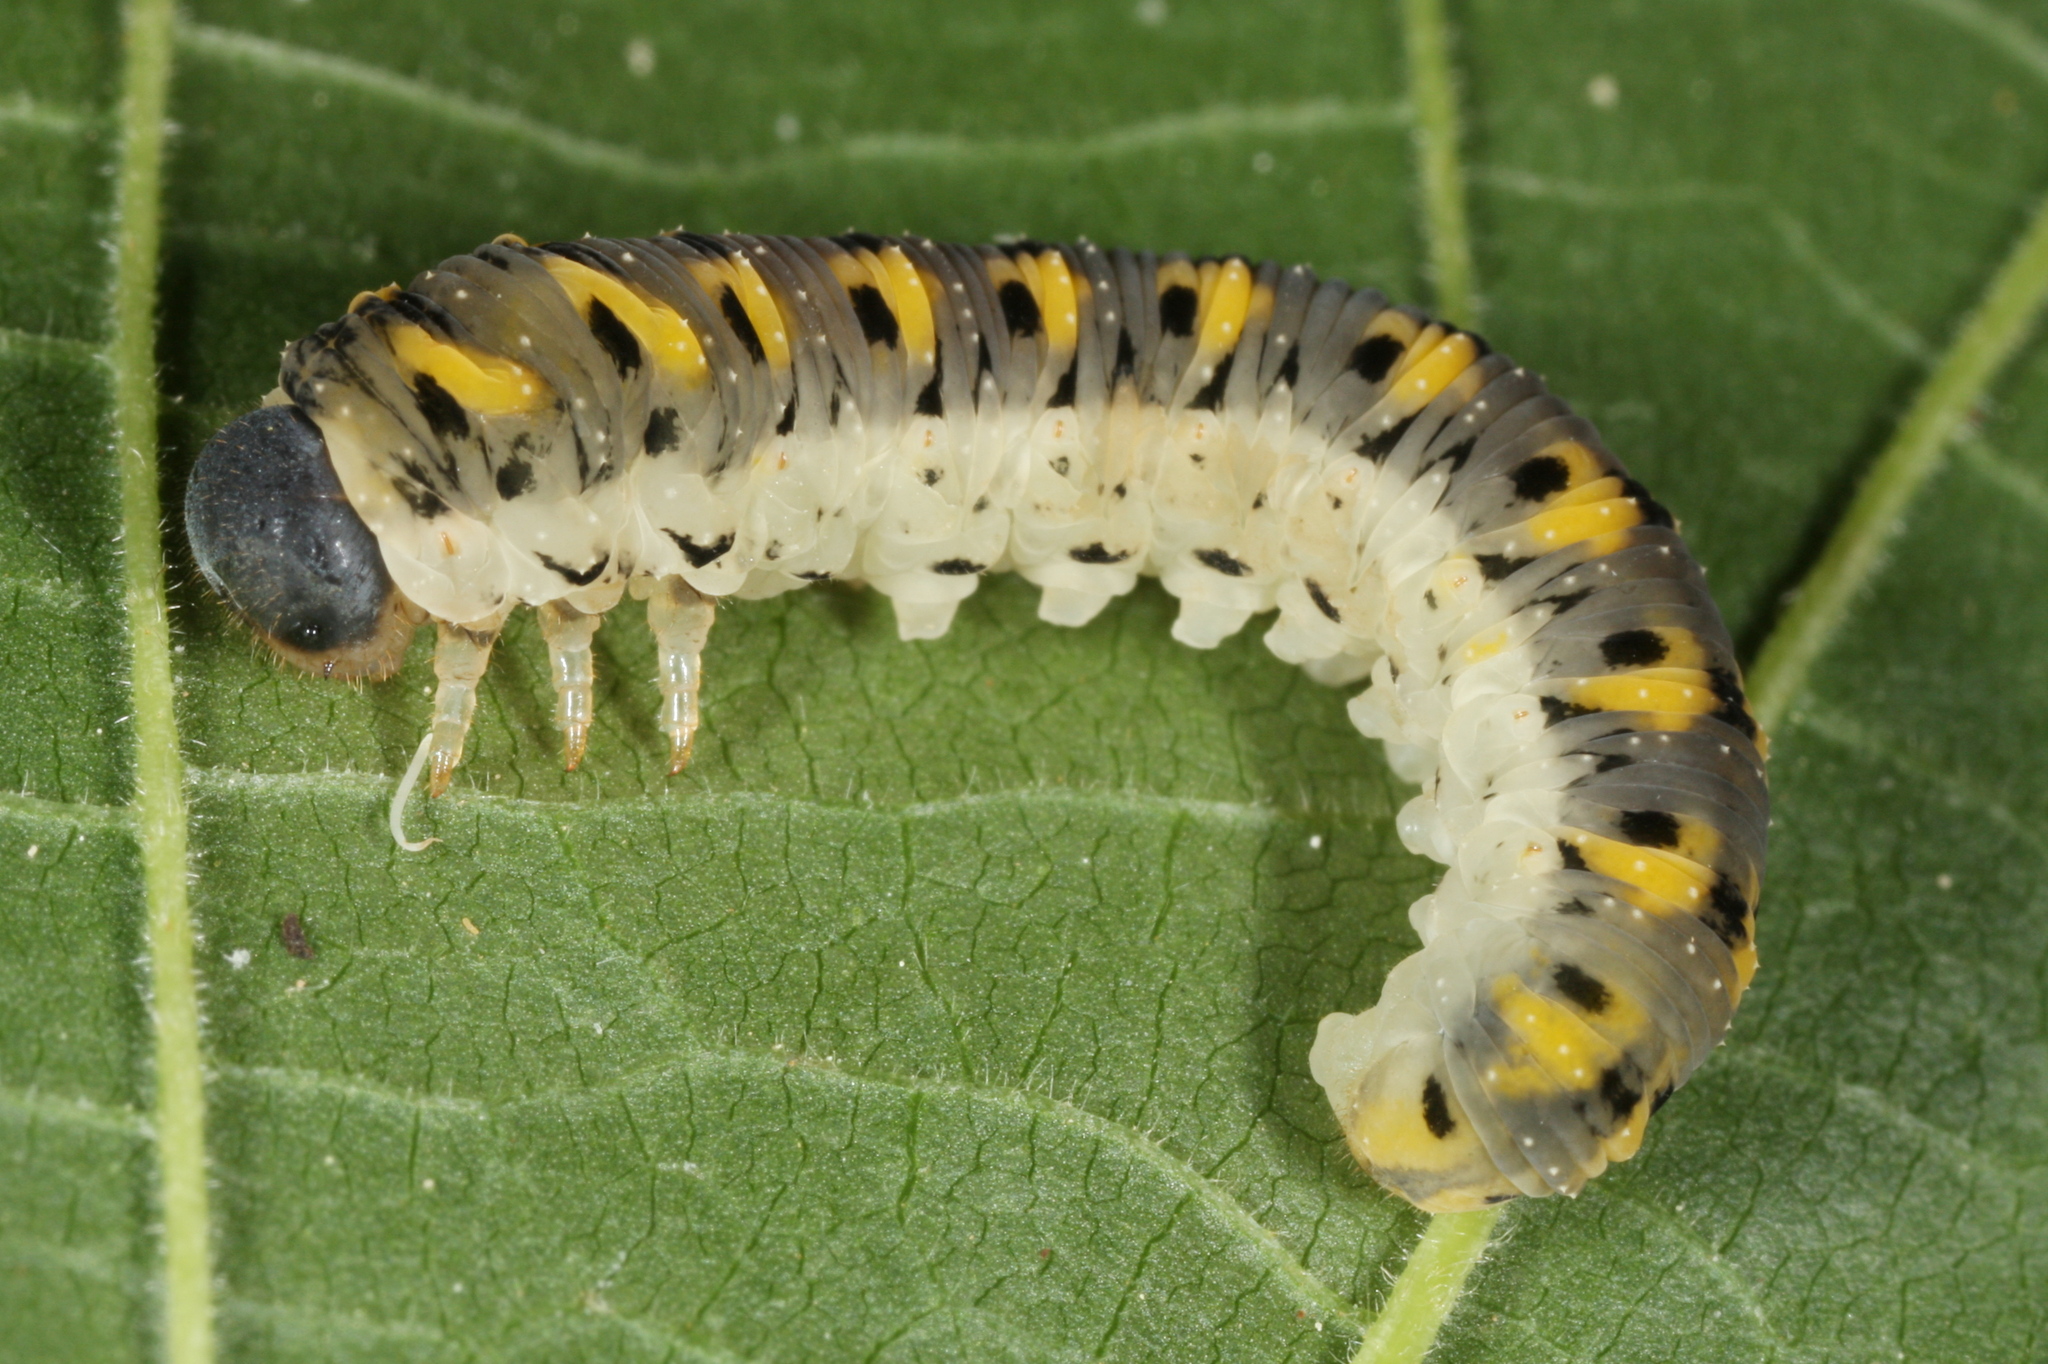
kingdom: Animalia
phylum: Arthropoda
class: Insecta
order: Hymenoptera
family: Tenthredinidae
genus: Tenthredo
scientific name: Tenthredo crassa
